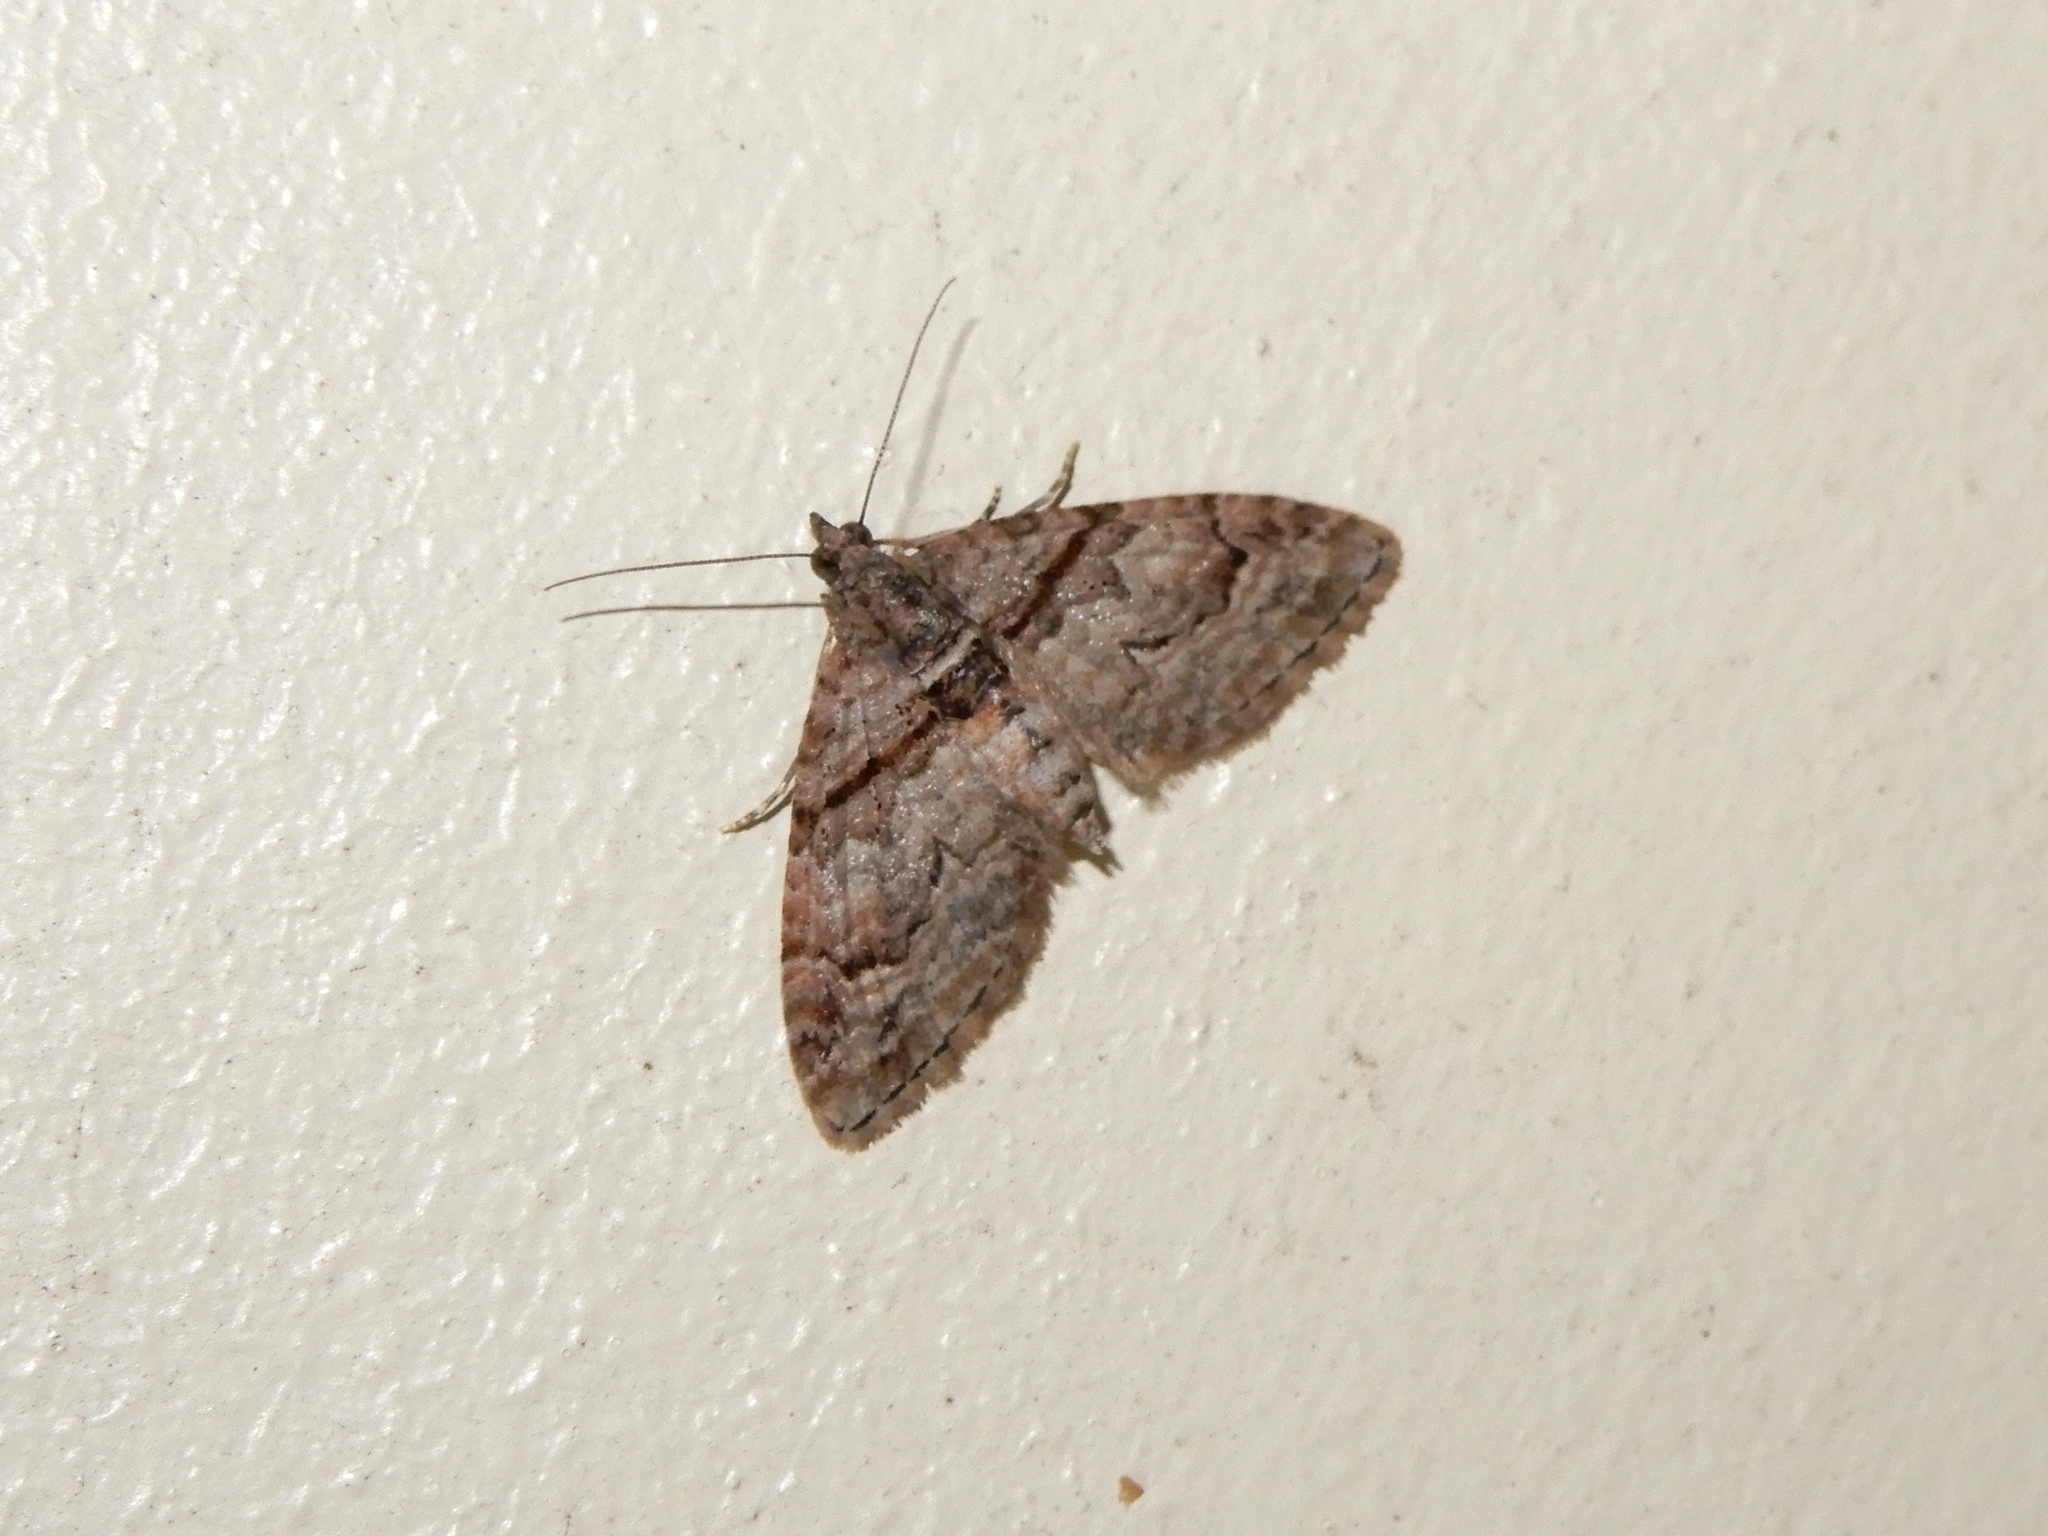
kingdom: Animalia
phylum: Arthropoda
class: Insecta
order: Lepidoptera
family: Geometridae
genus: Phrissogonus
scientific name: Phrissogonus laticostata
